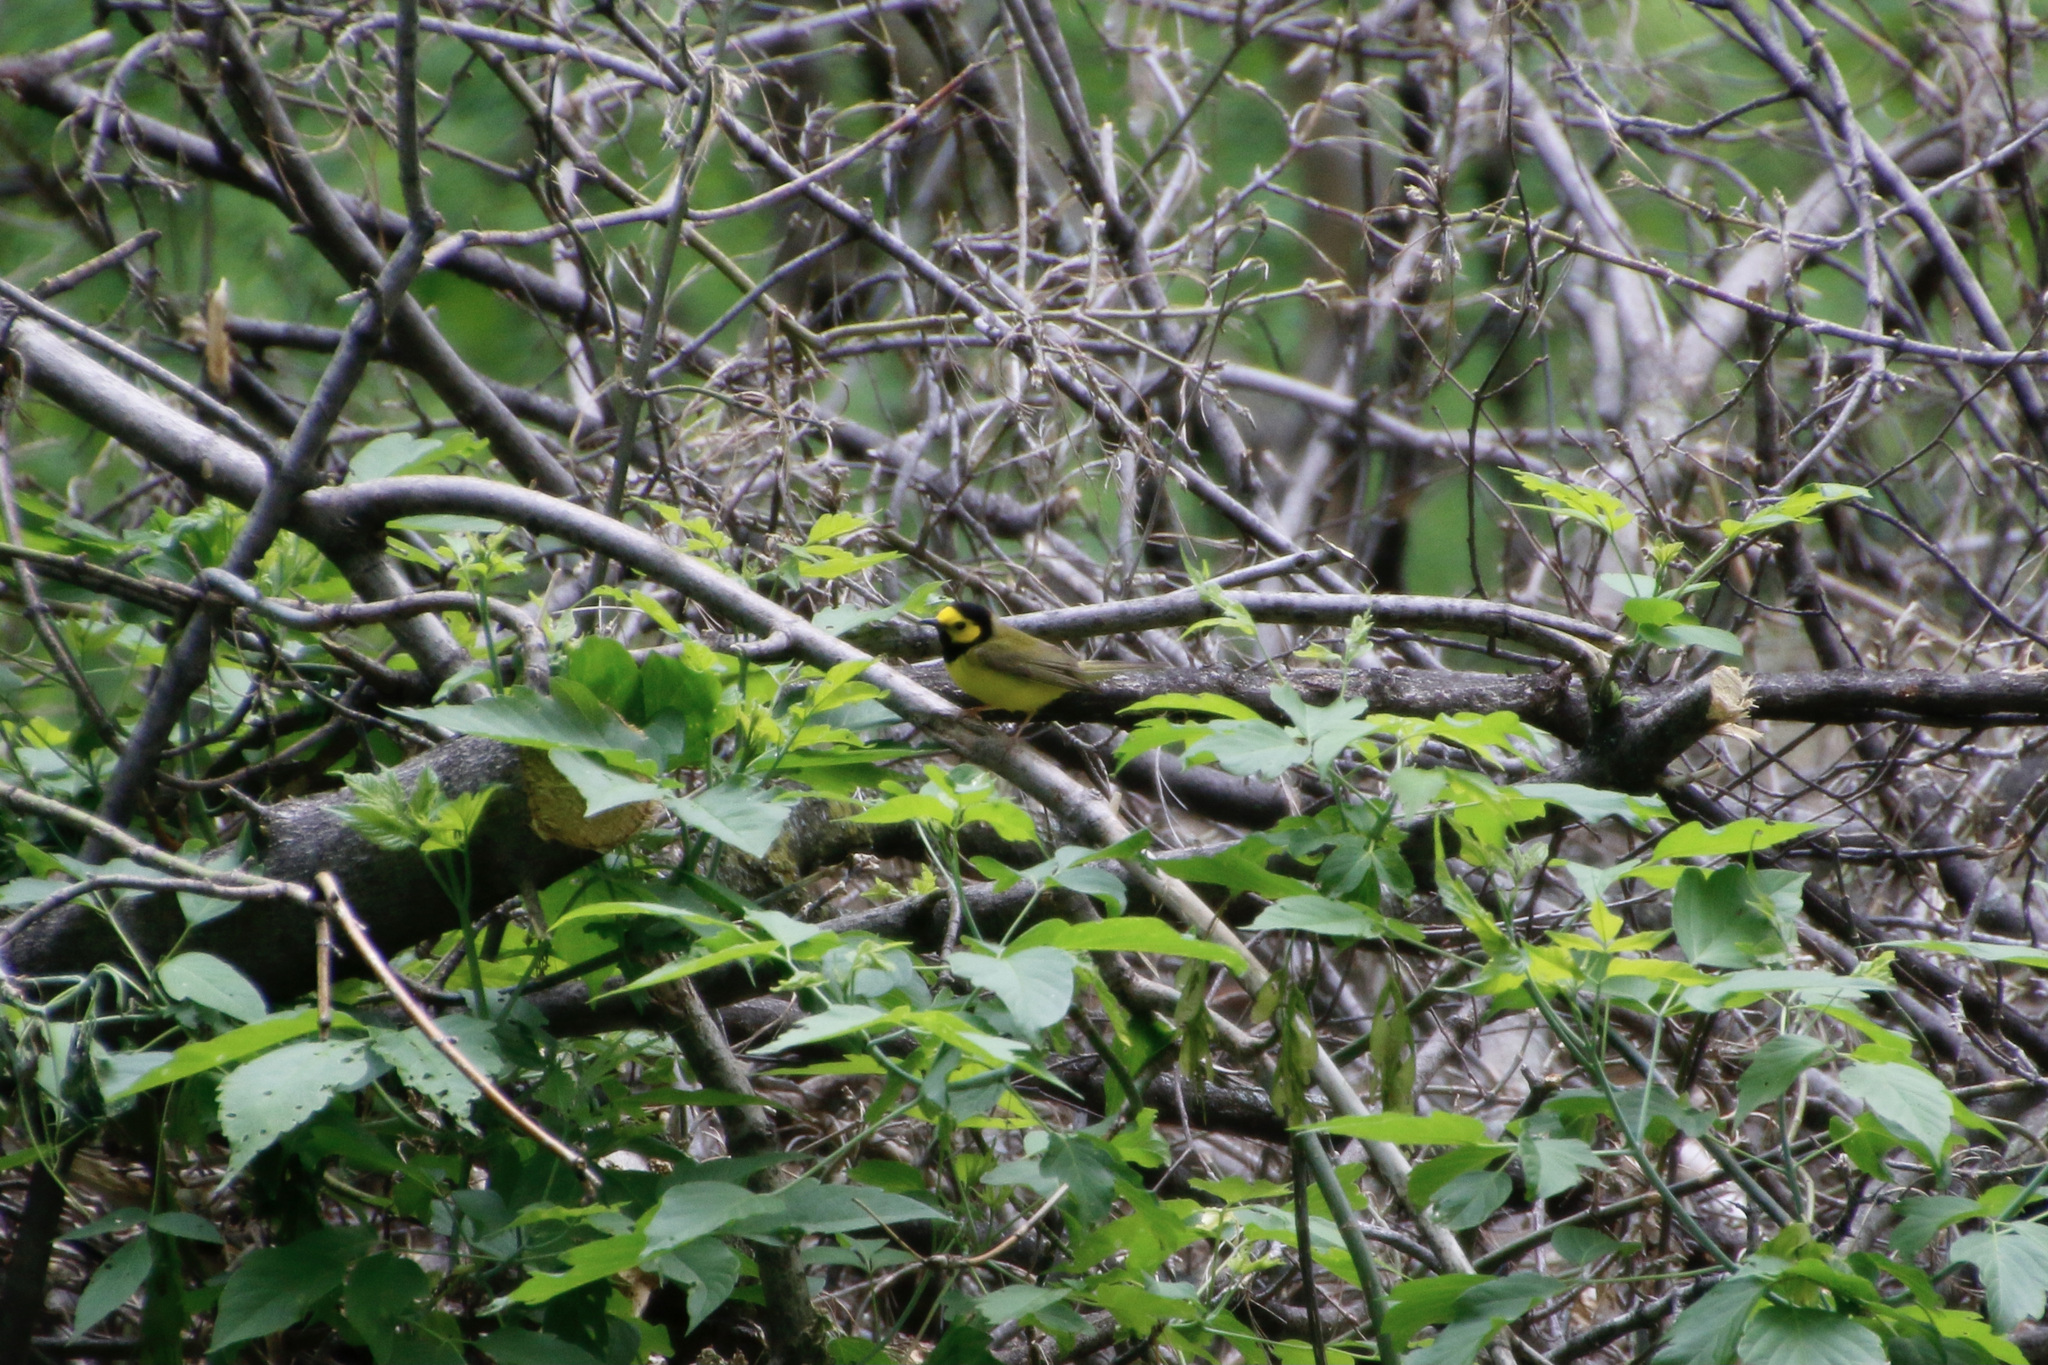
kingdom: Animalia
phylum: Chordata
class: Aves
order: Passeriformes
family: Parulidae
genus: Setophaga
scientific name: Setophaga citrina
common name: Hooded warbler
